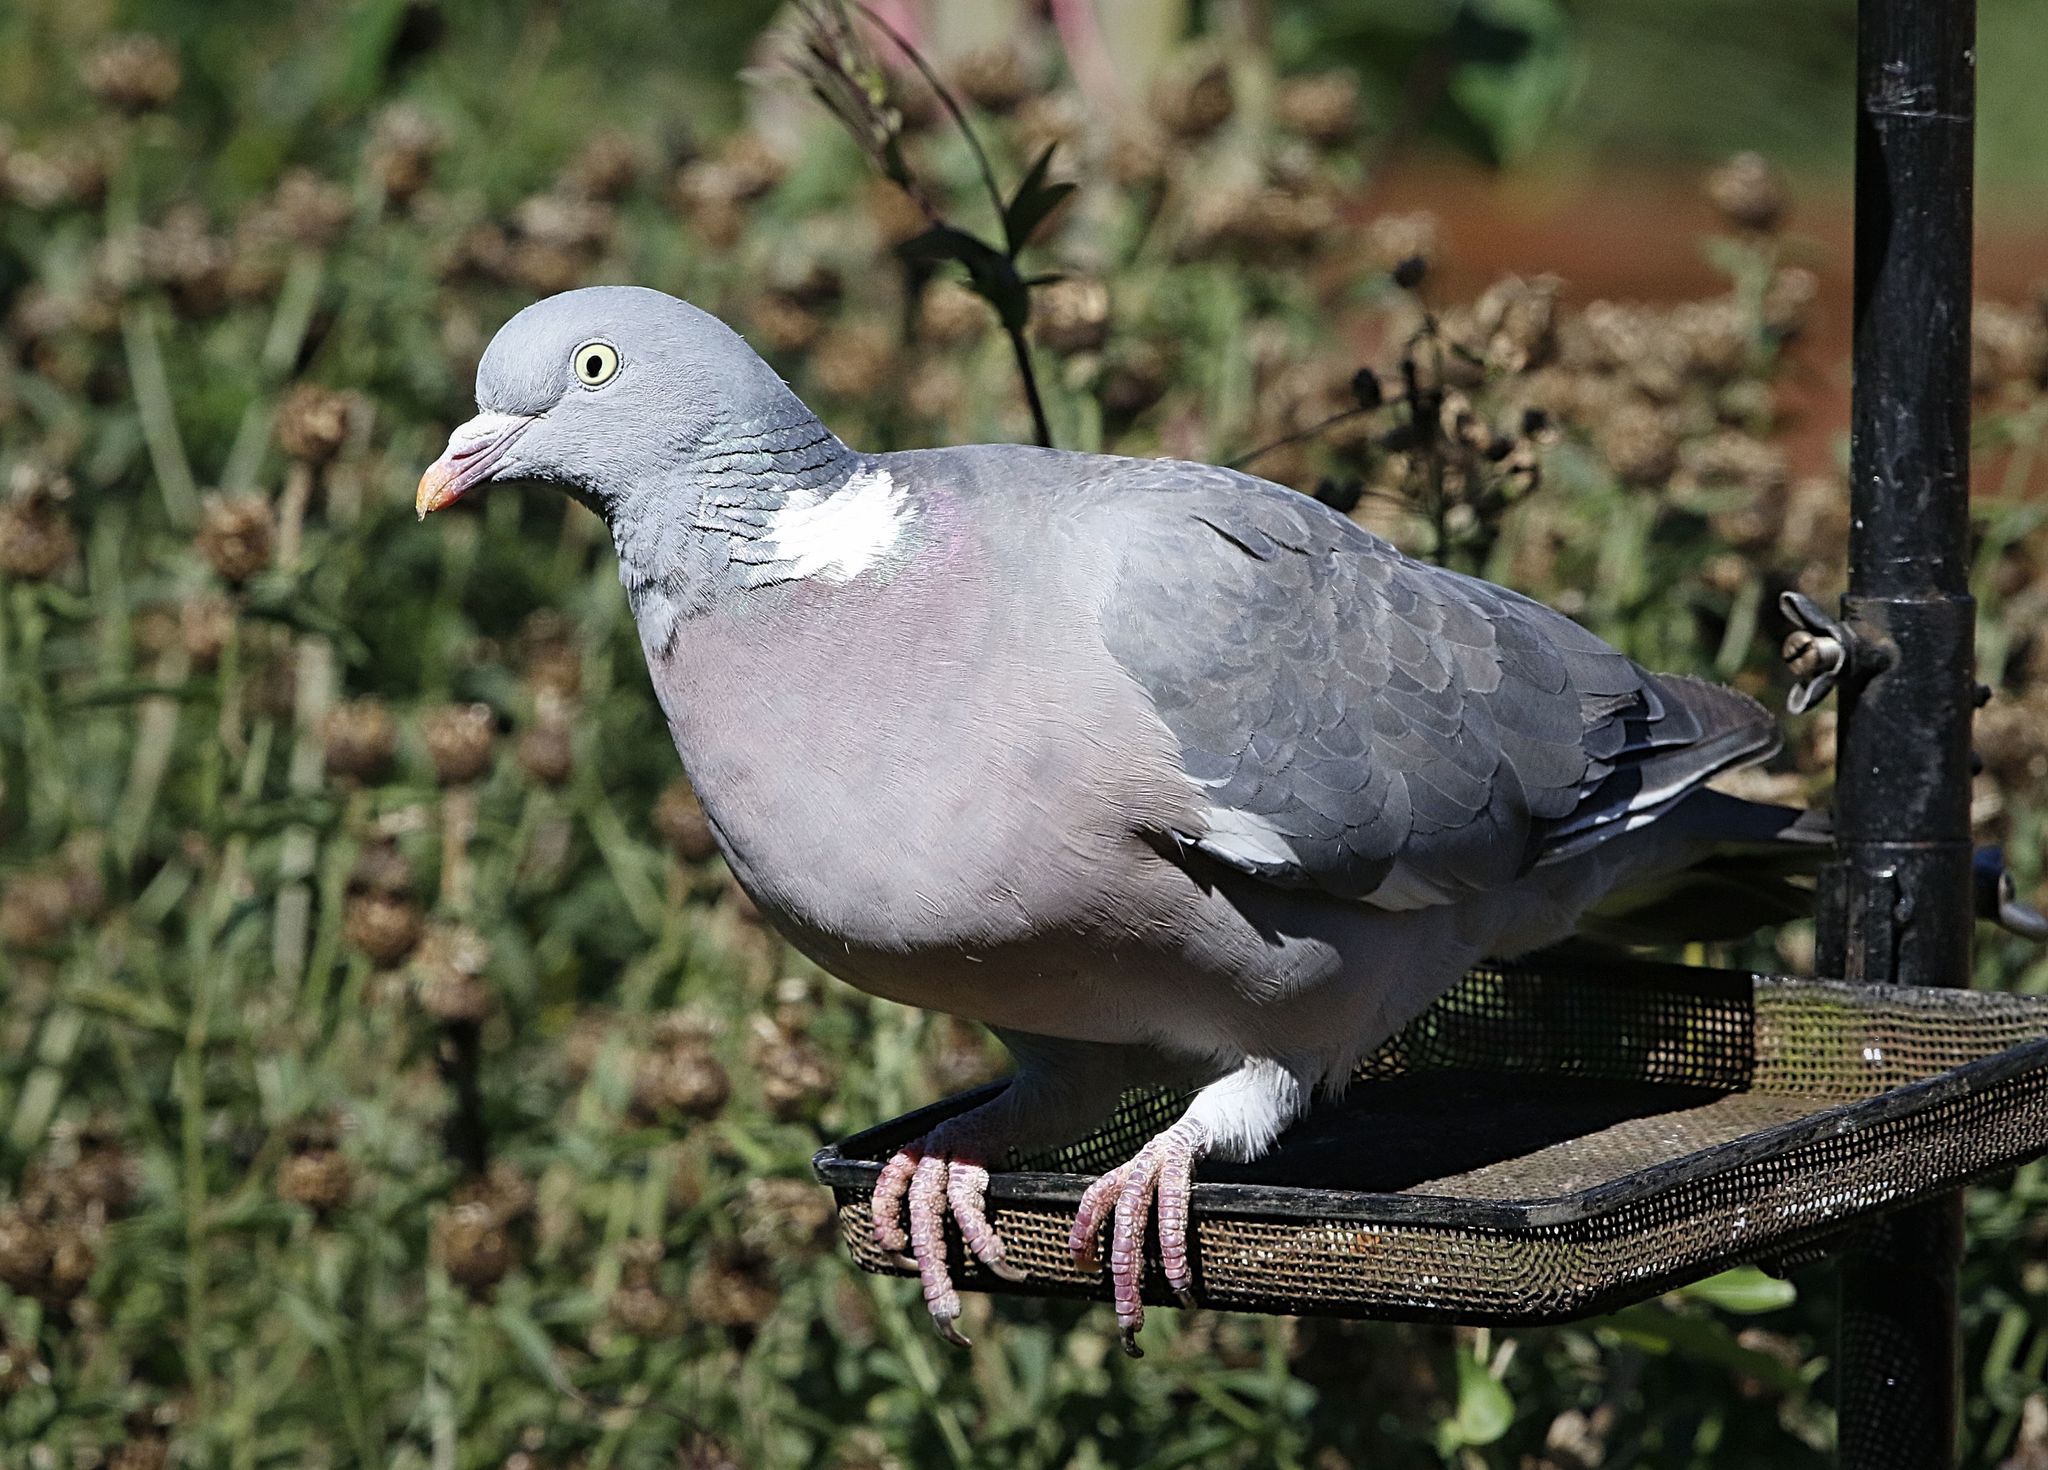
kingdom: Animalia
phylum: Chordata
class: Aves
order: Columbiformes
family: Columbidae
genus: Columba
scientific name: Columba palumbus
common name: Common wood pigeon
